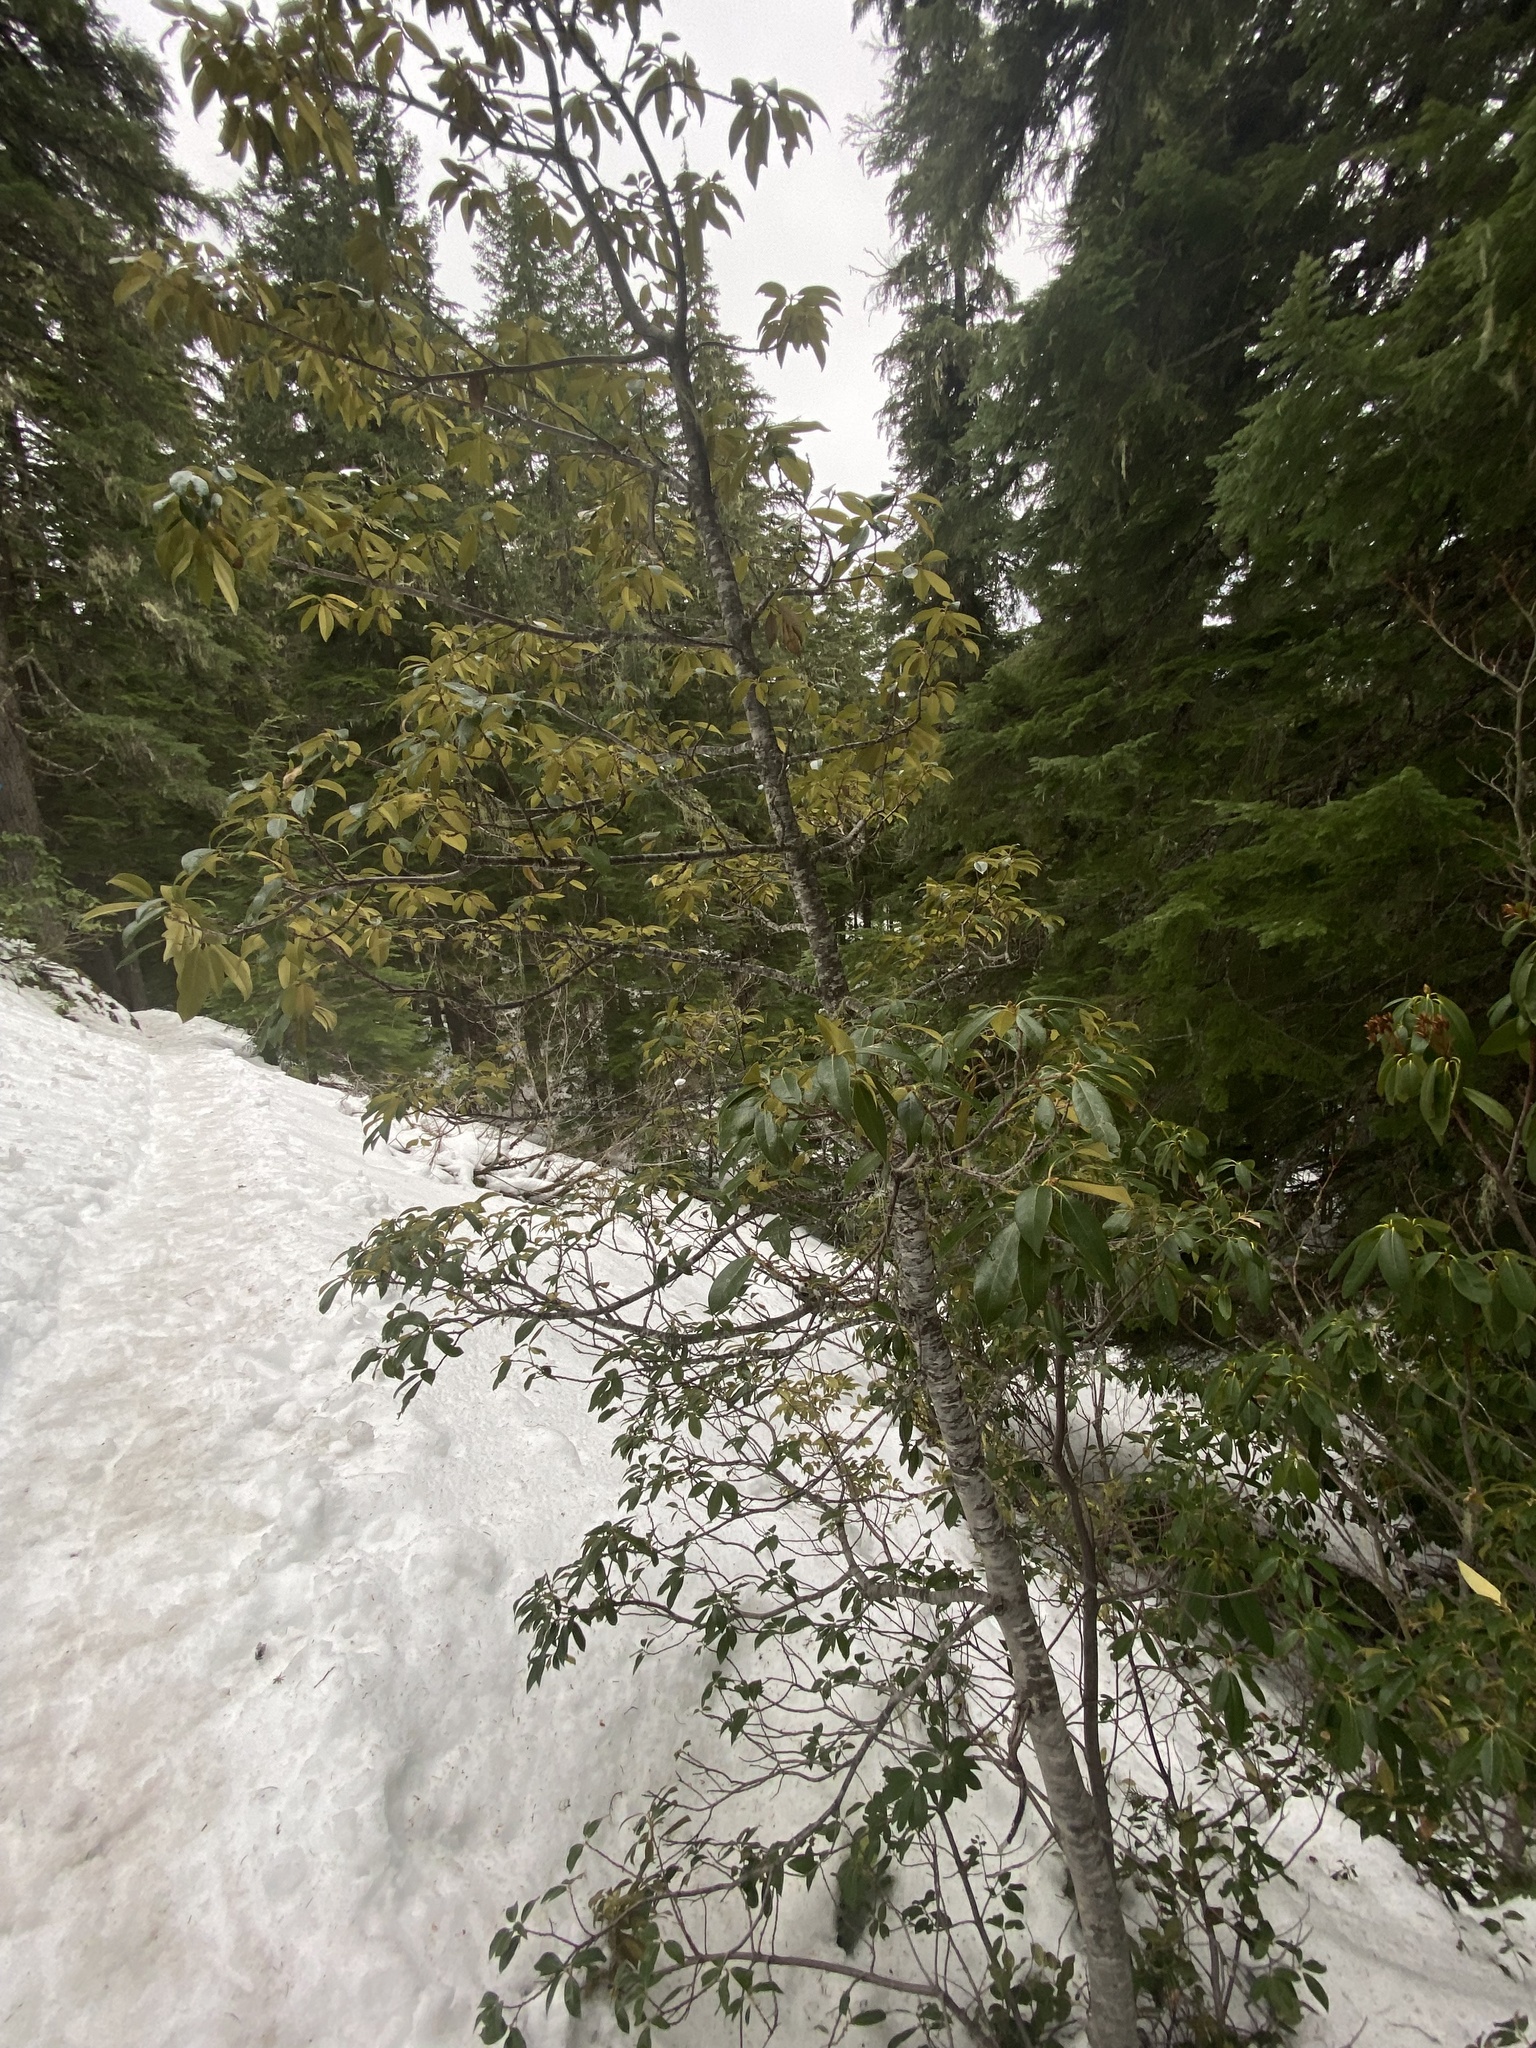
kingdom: Plantae
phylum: Tracheophyta
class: Magnoliopsida
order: Fagales
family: Fagaceae
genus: Chrysolepis
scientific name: Chrysolepis chrysophylla
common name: Giant chinquapin
